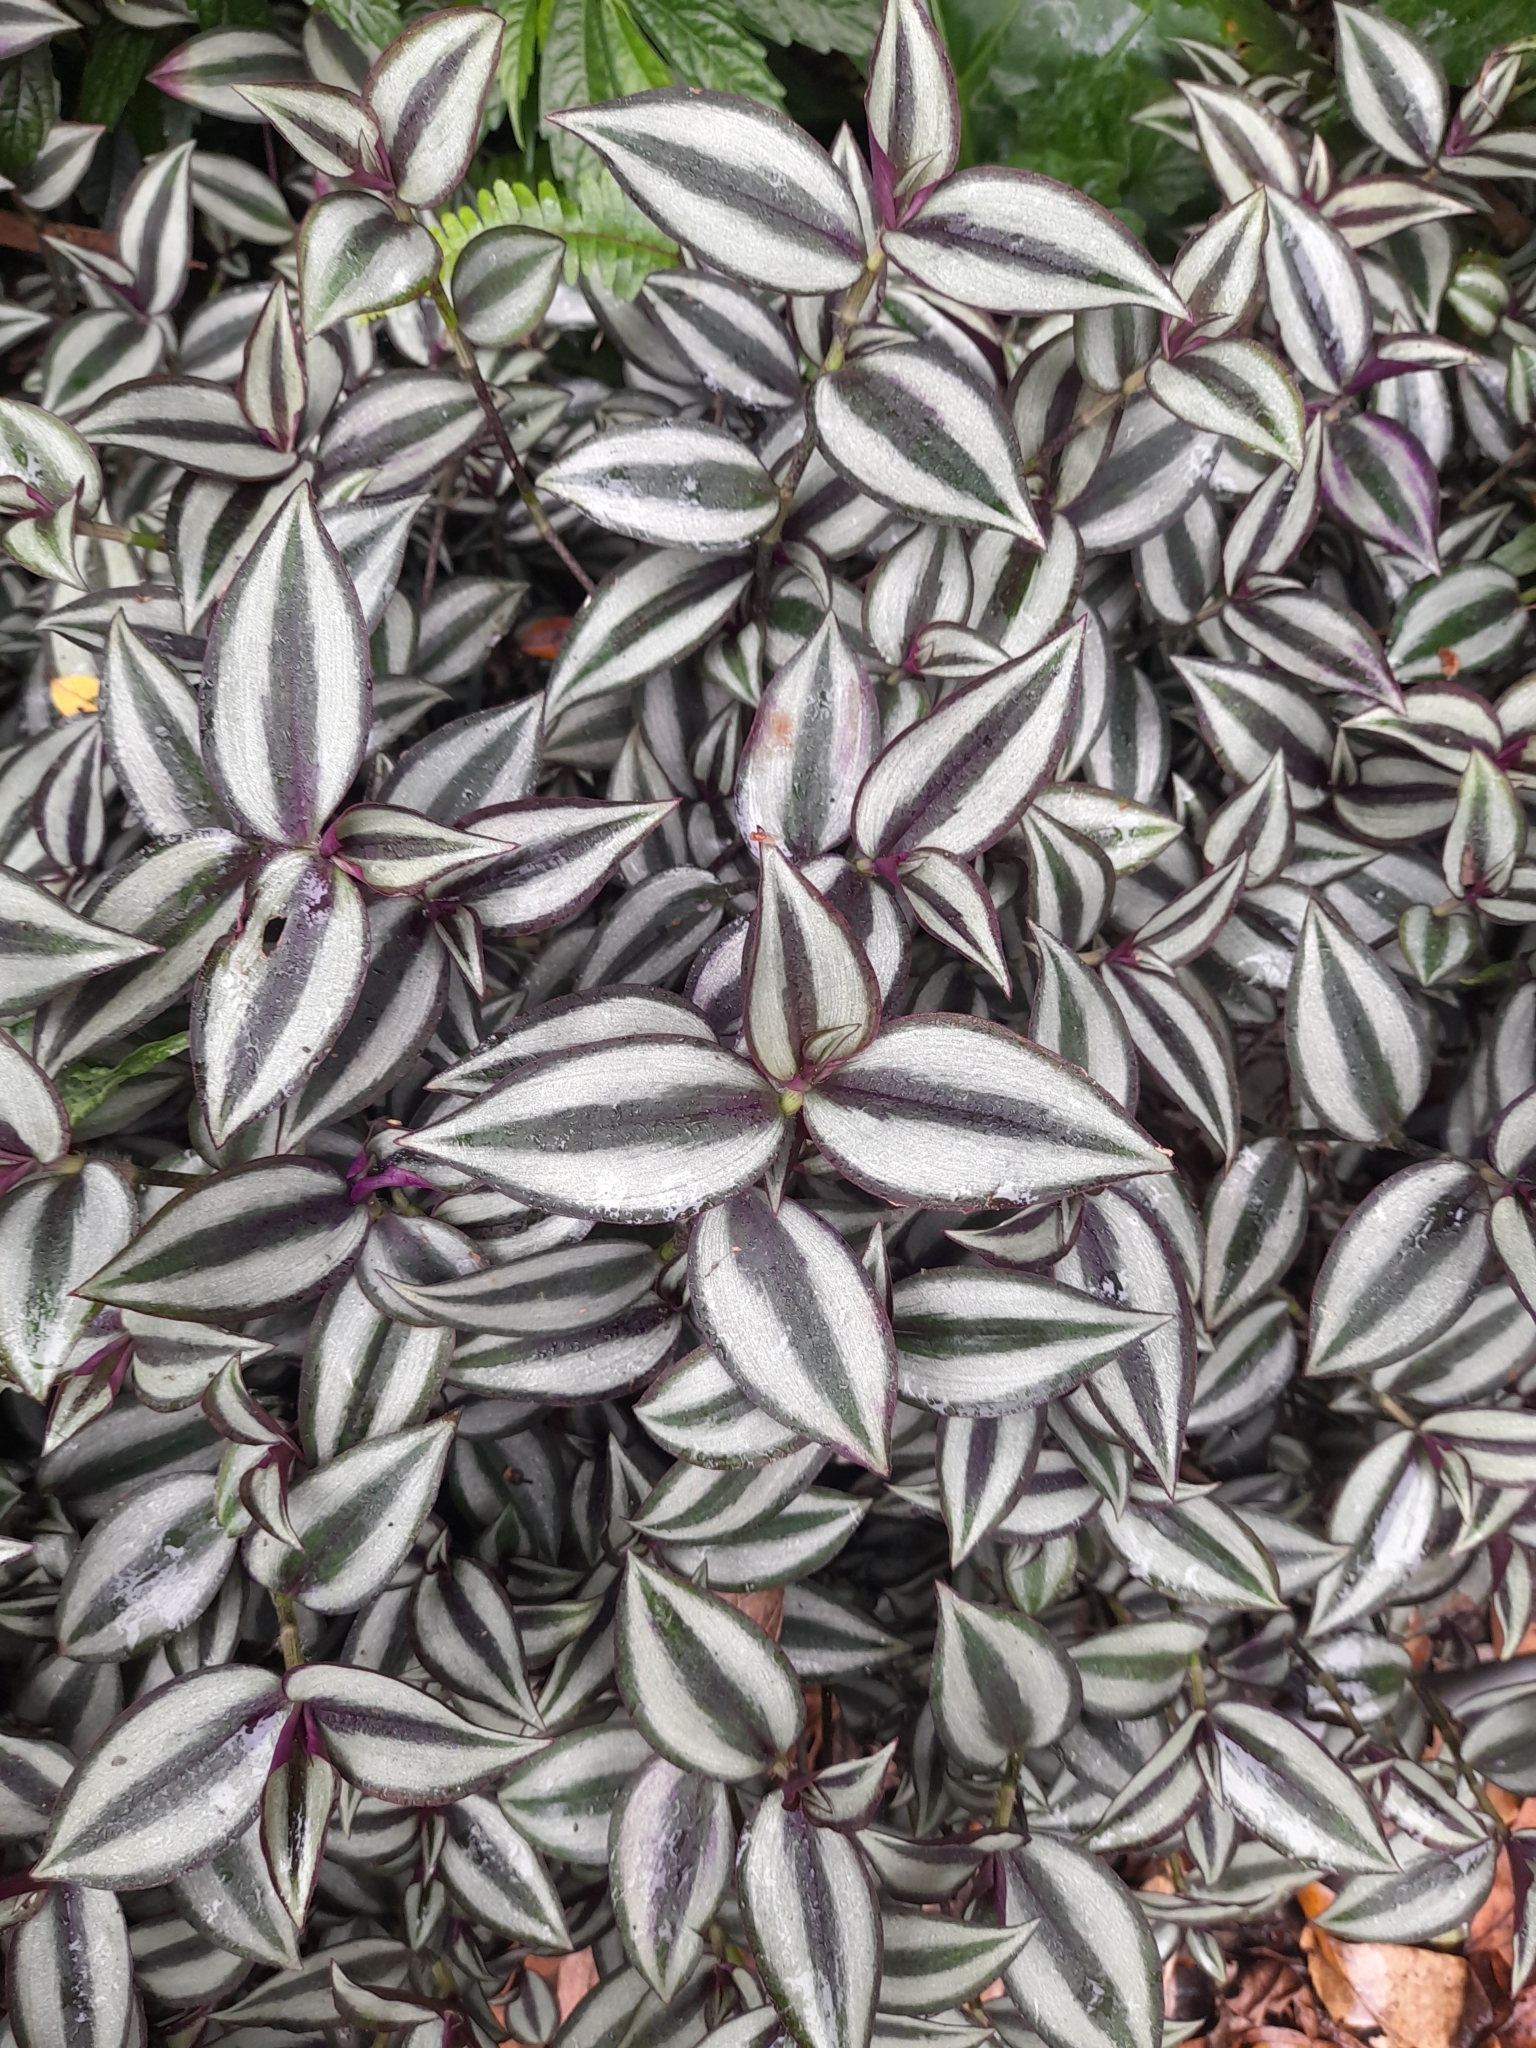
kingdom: Plantae
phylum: Tracheophyta
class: Liliopsida
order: Commelinales
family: Commelinaceae
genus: Tradescantia
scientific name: Tradescantia zebrina
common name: Inchplant
